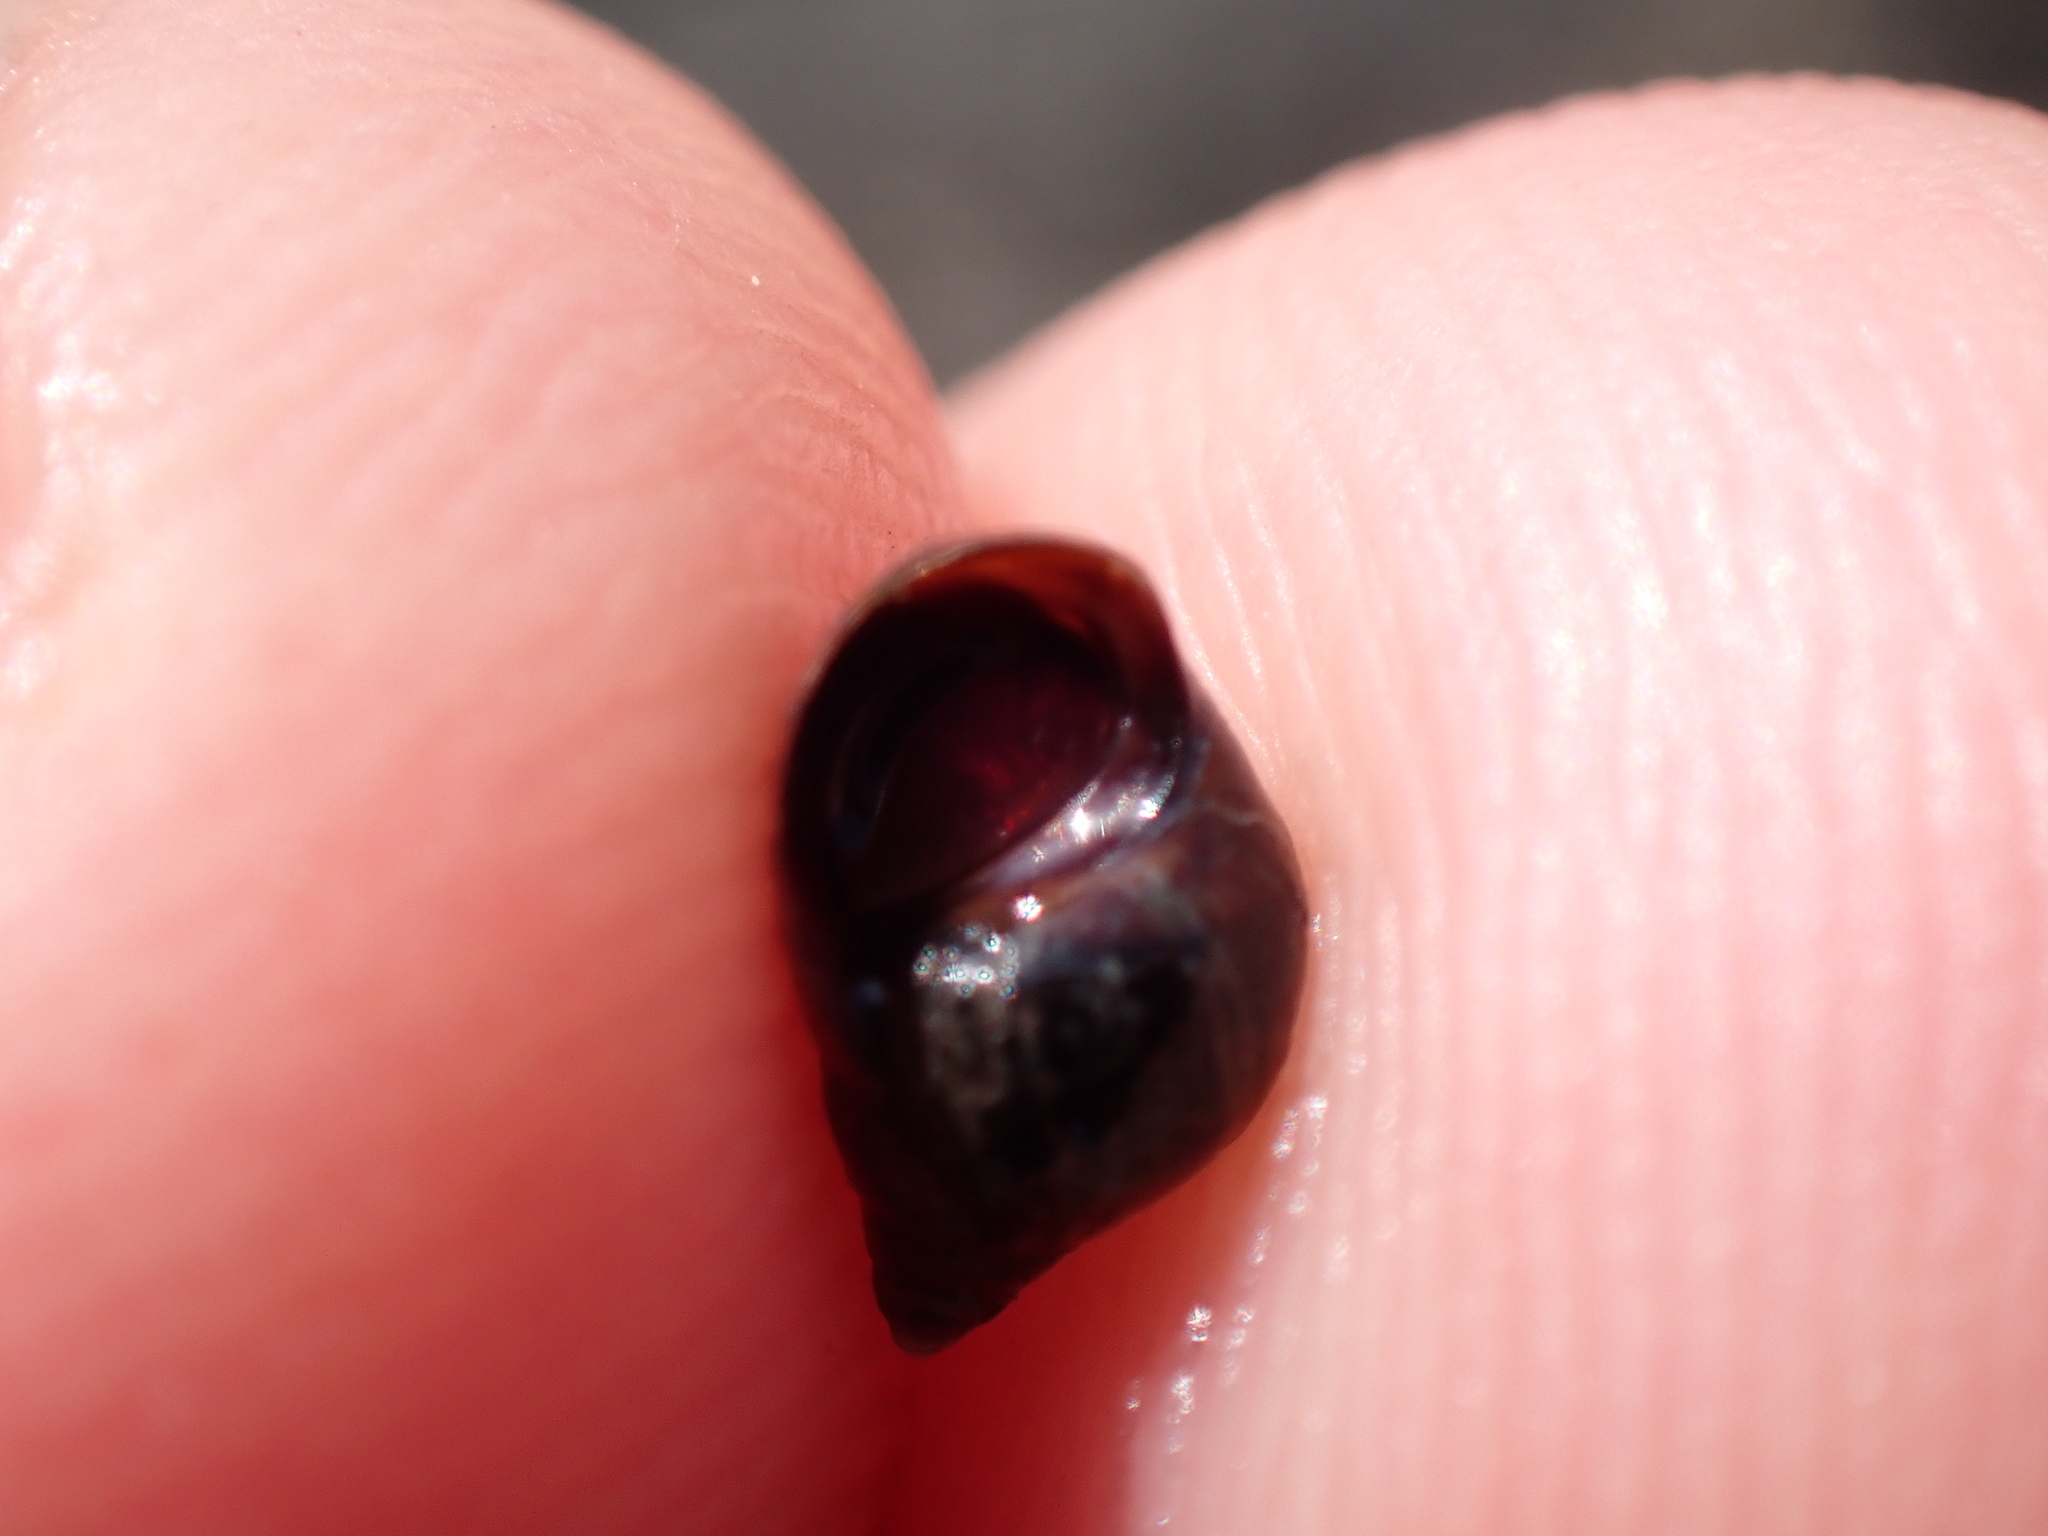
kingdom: Animalia
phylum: Mollusca
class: Gastropoda
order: Littorinimorpha
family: Littorinidae
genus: Melarhaphe
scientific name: Melarhaphe neritoides
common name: Small periwinkle
